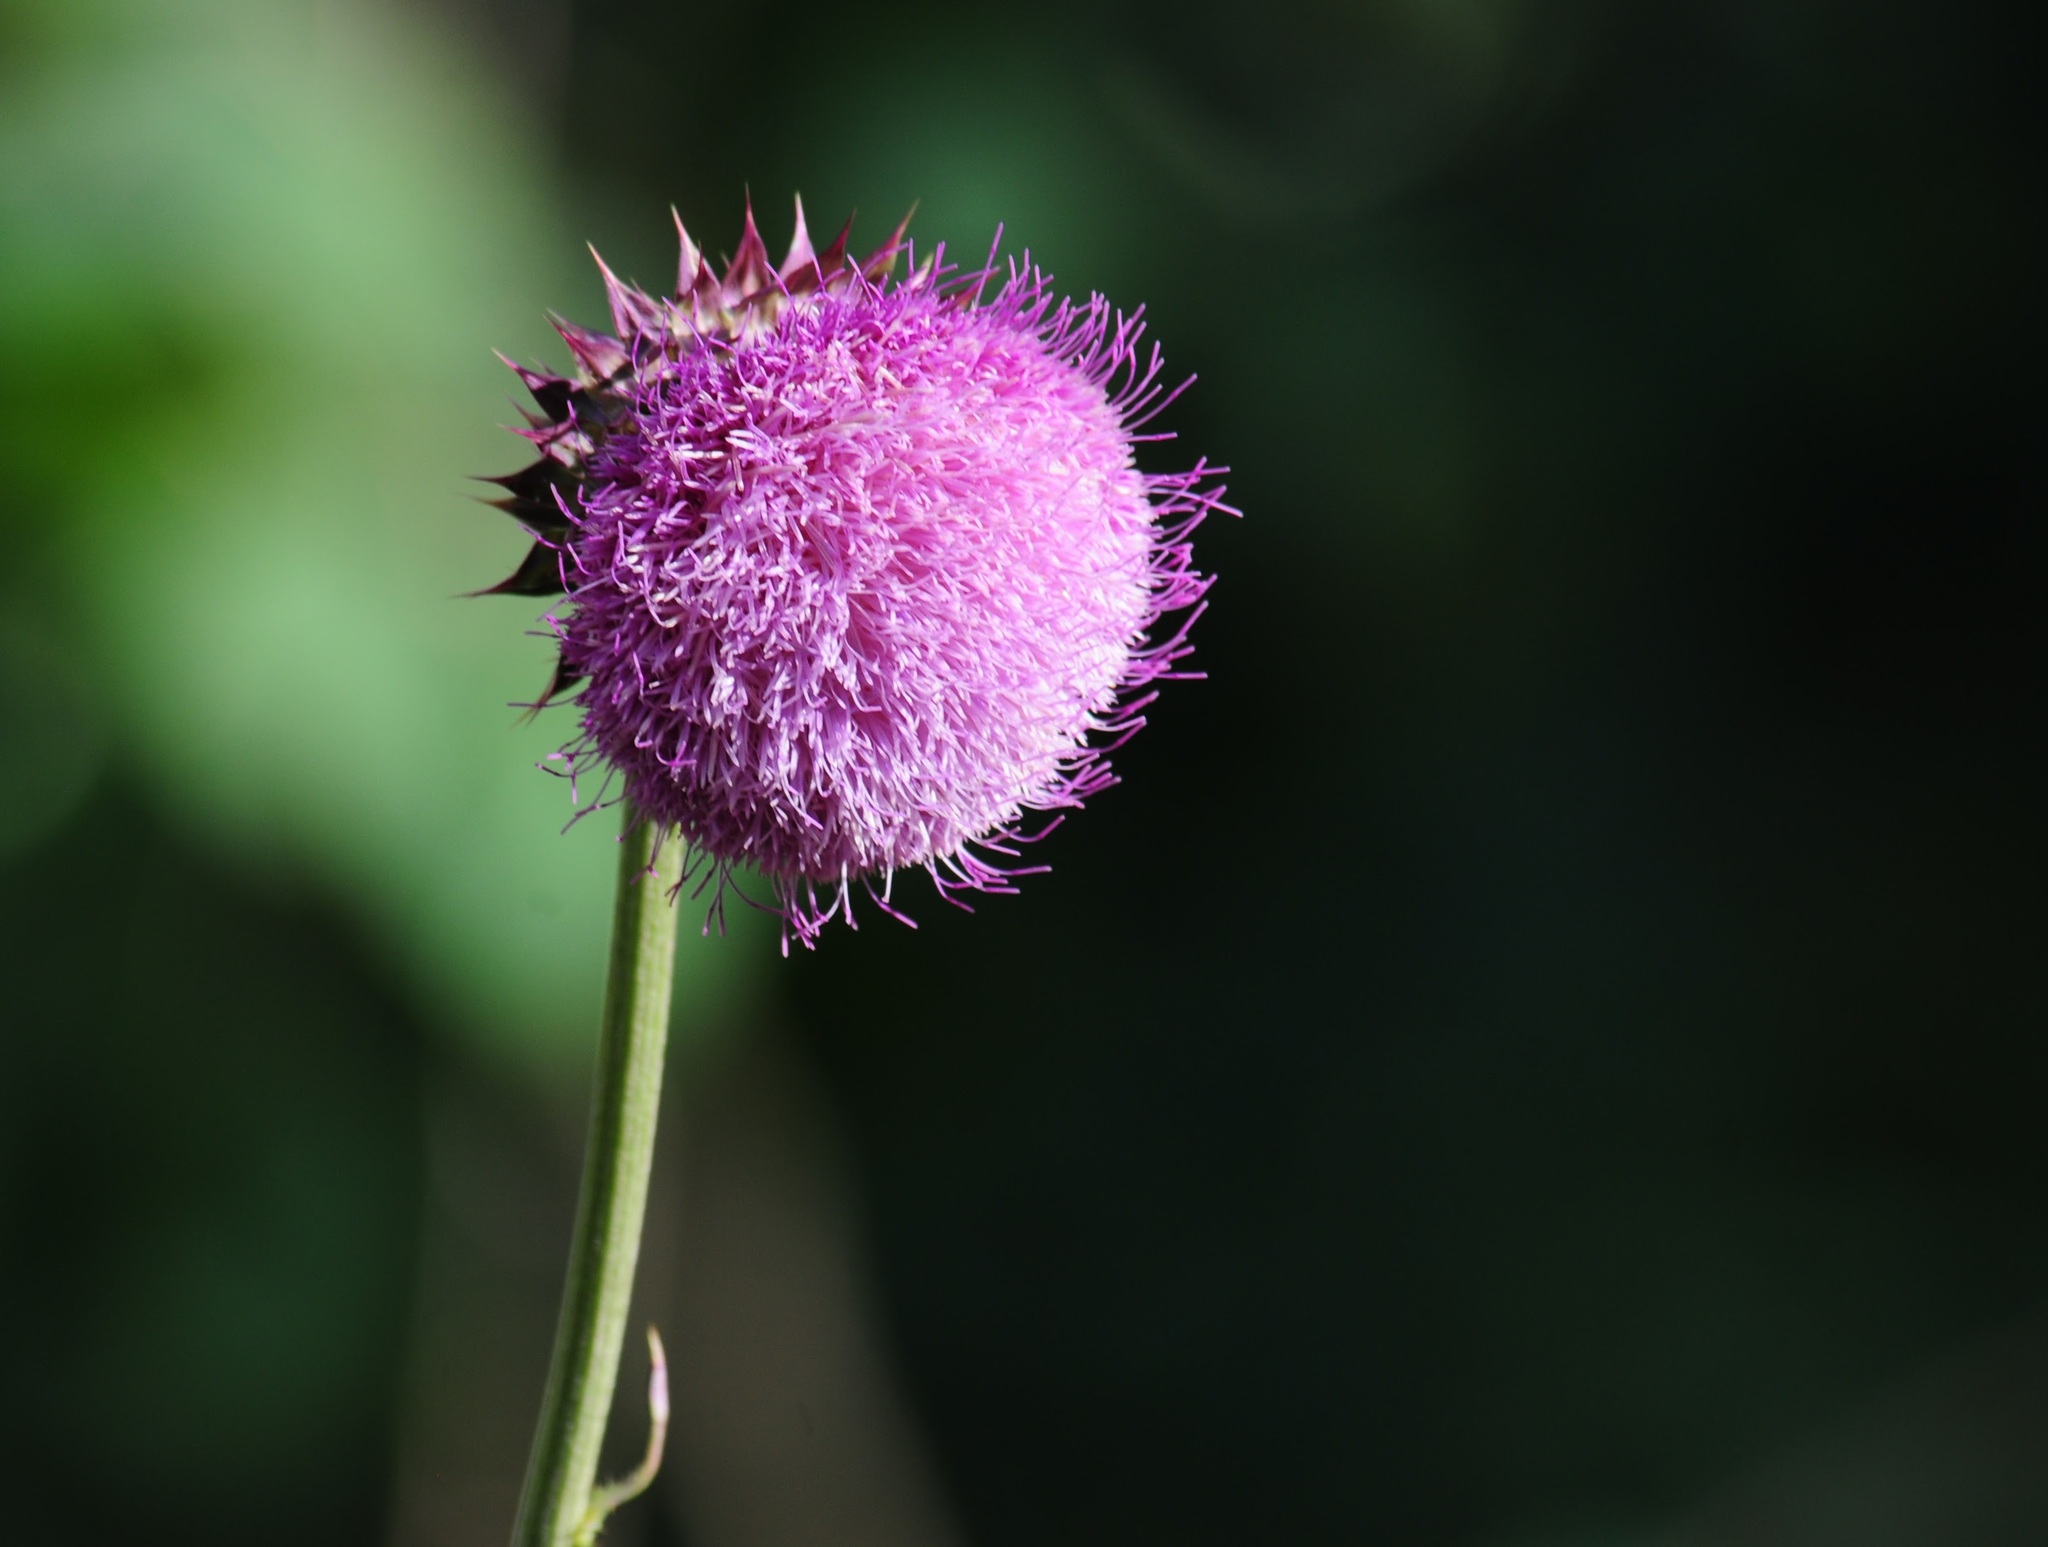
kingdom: Plantae
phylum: Tracheophyta
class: Magnoliopsida
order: Asterales
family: Asteraceae
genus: Carduus
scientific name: Carduus nutans
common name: Musk thistle
